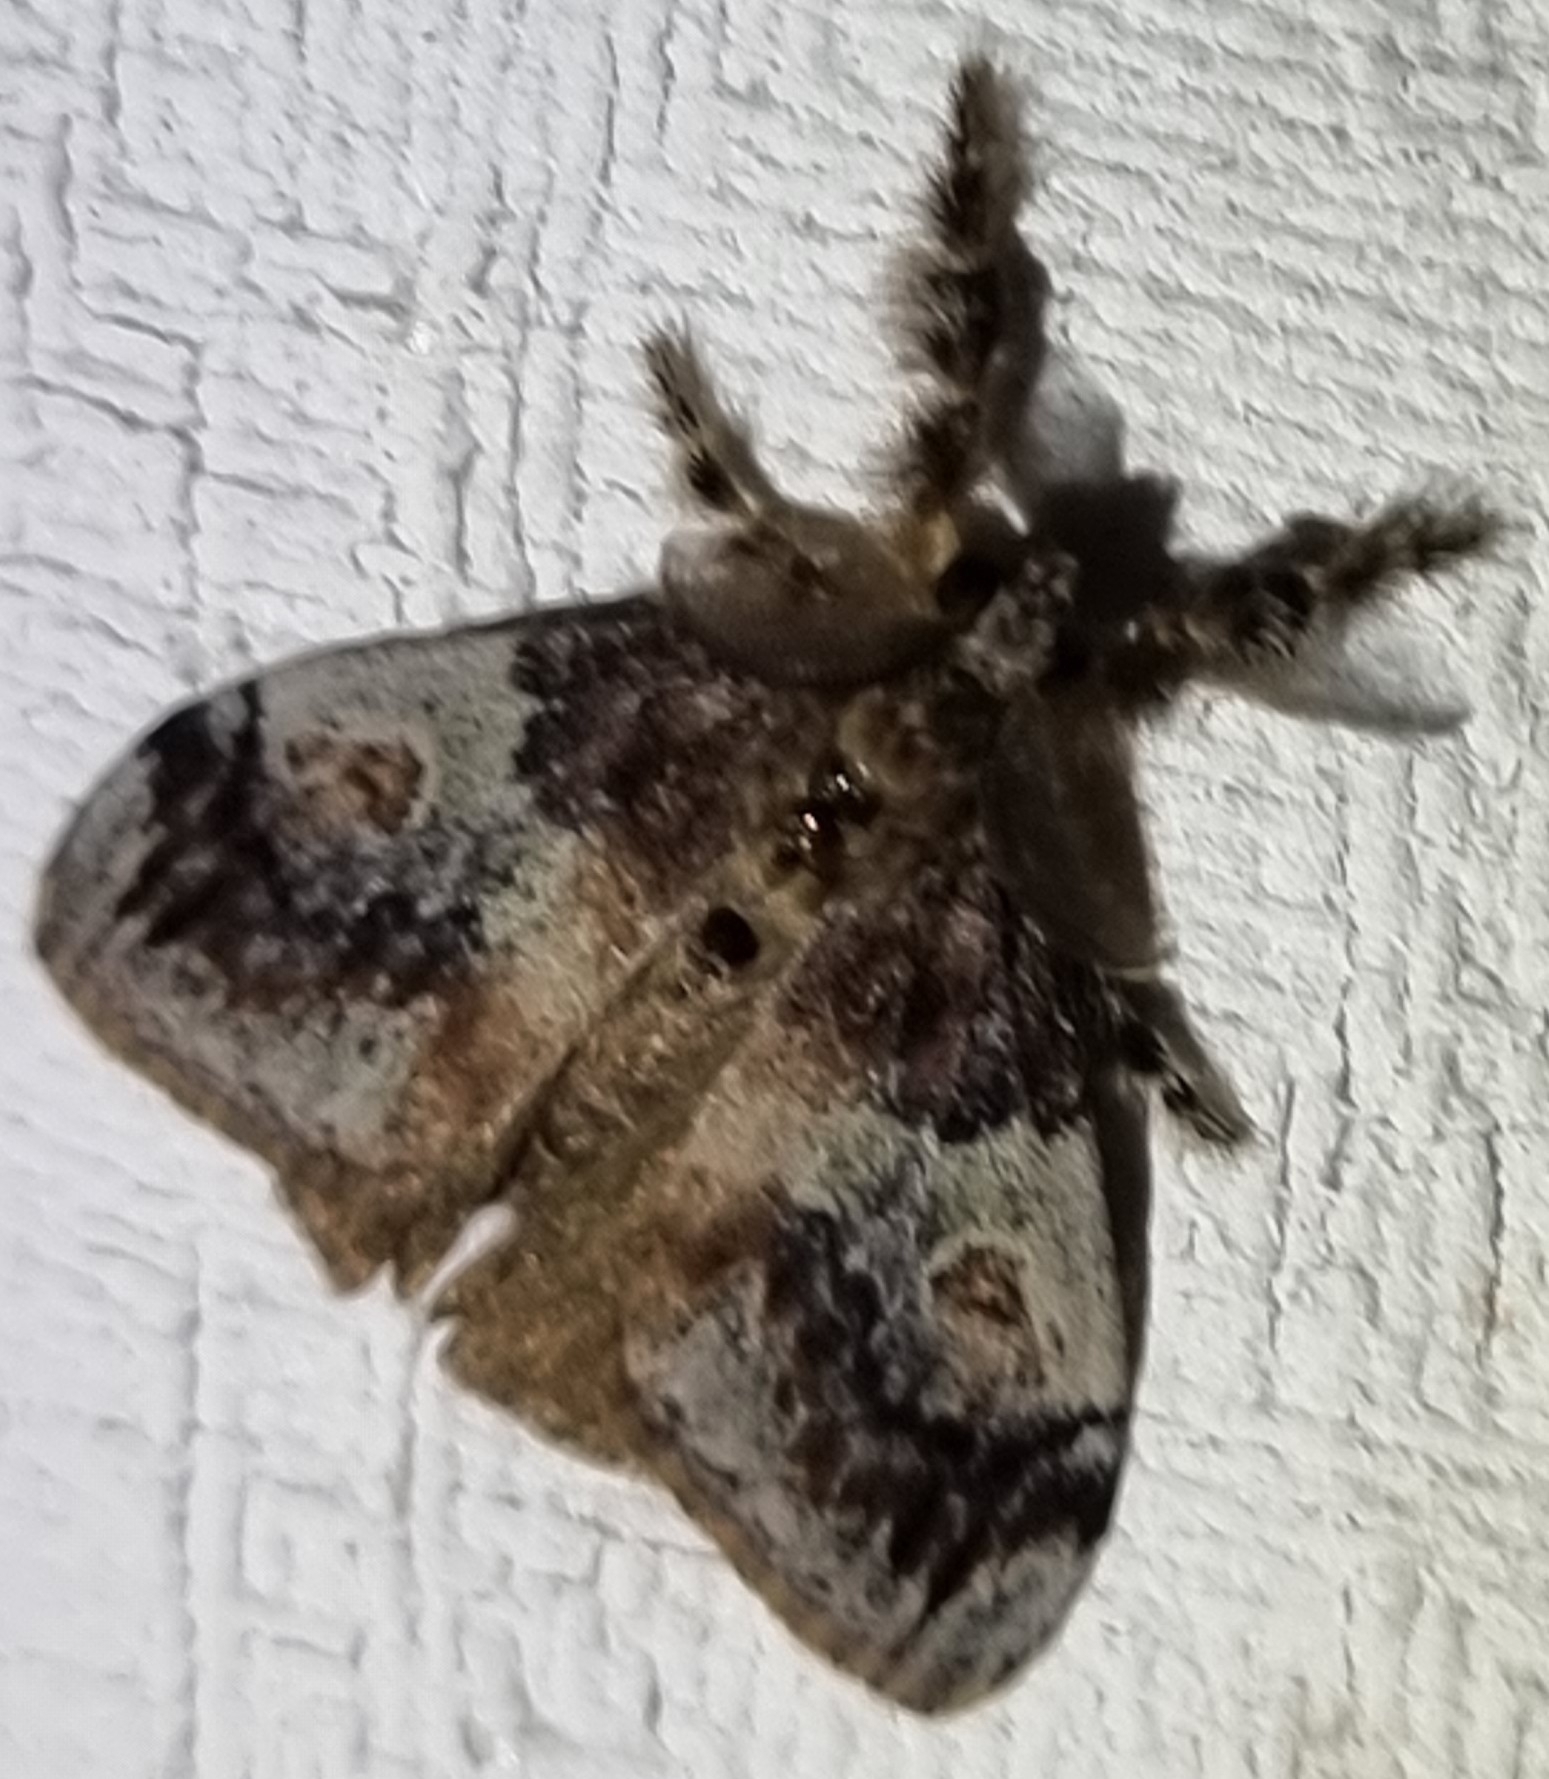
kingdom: Animalia
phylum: Arthropoda
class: Insecta
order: Lepidoptera
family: Erebidae
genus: Orgyia
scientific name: Orgyia australis
